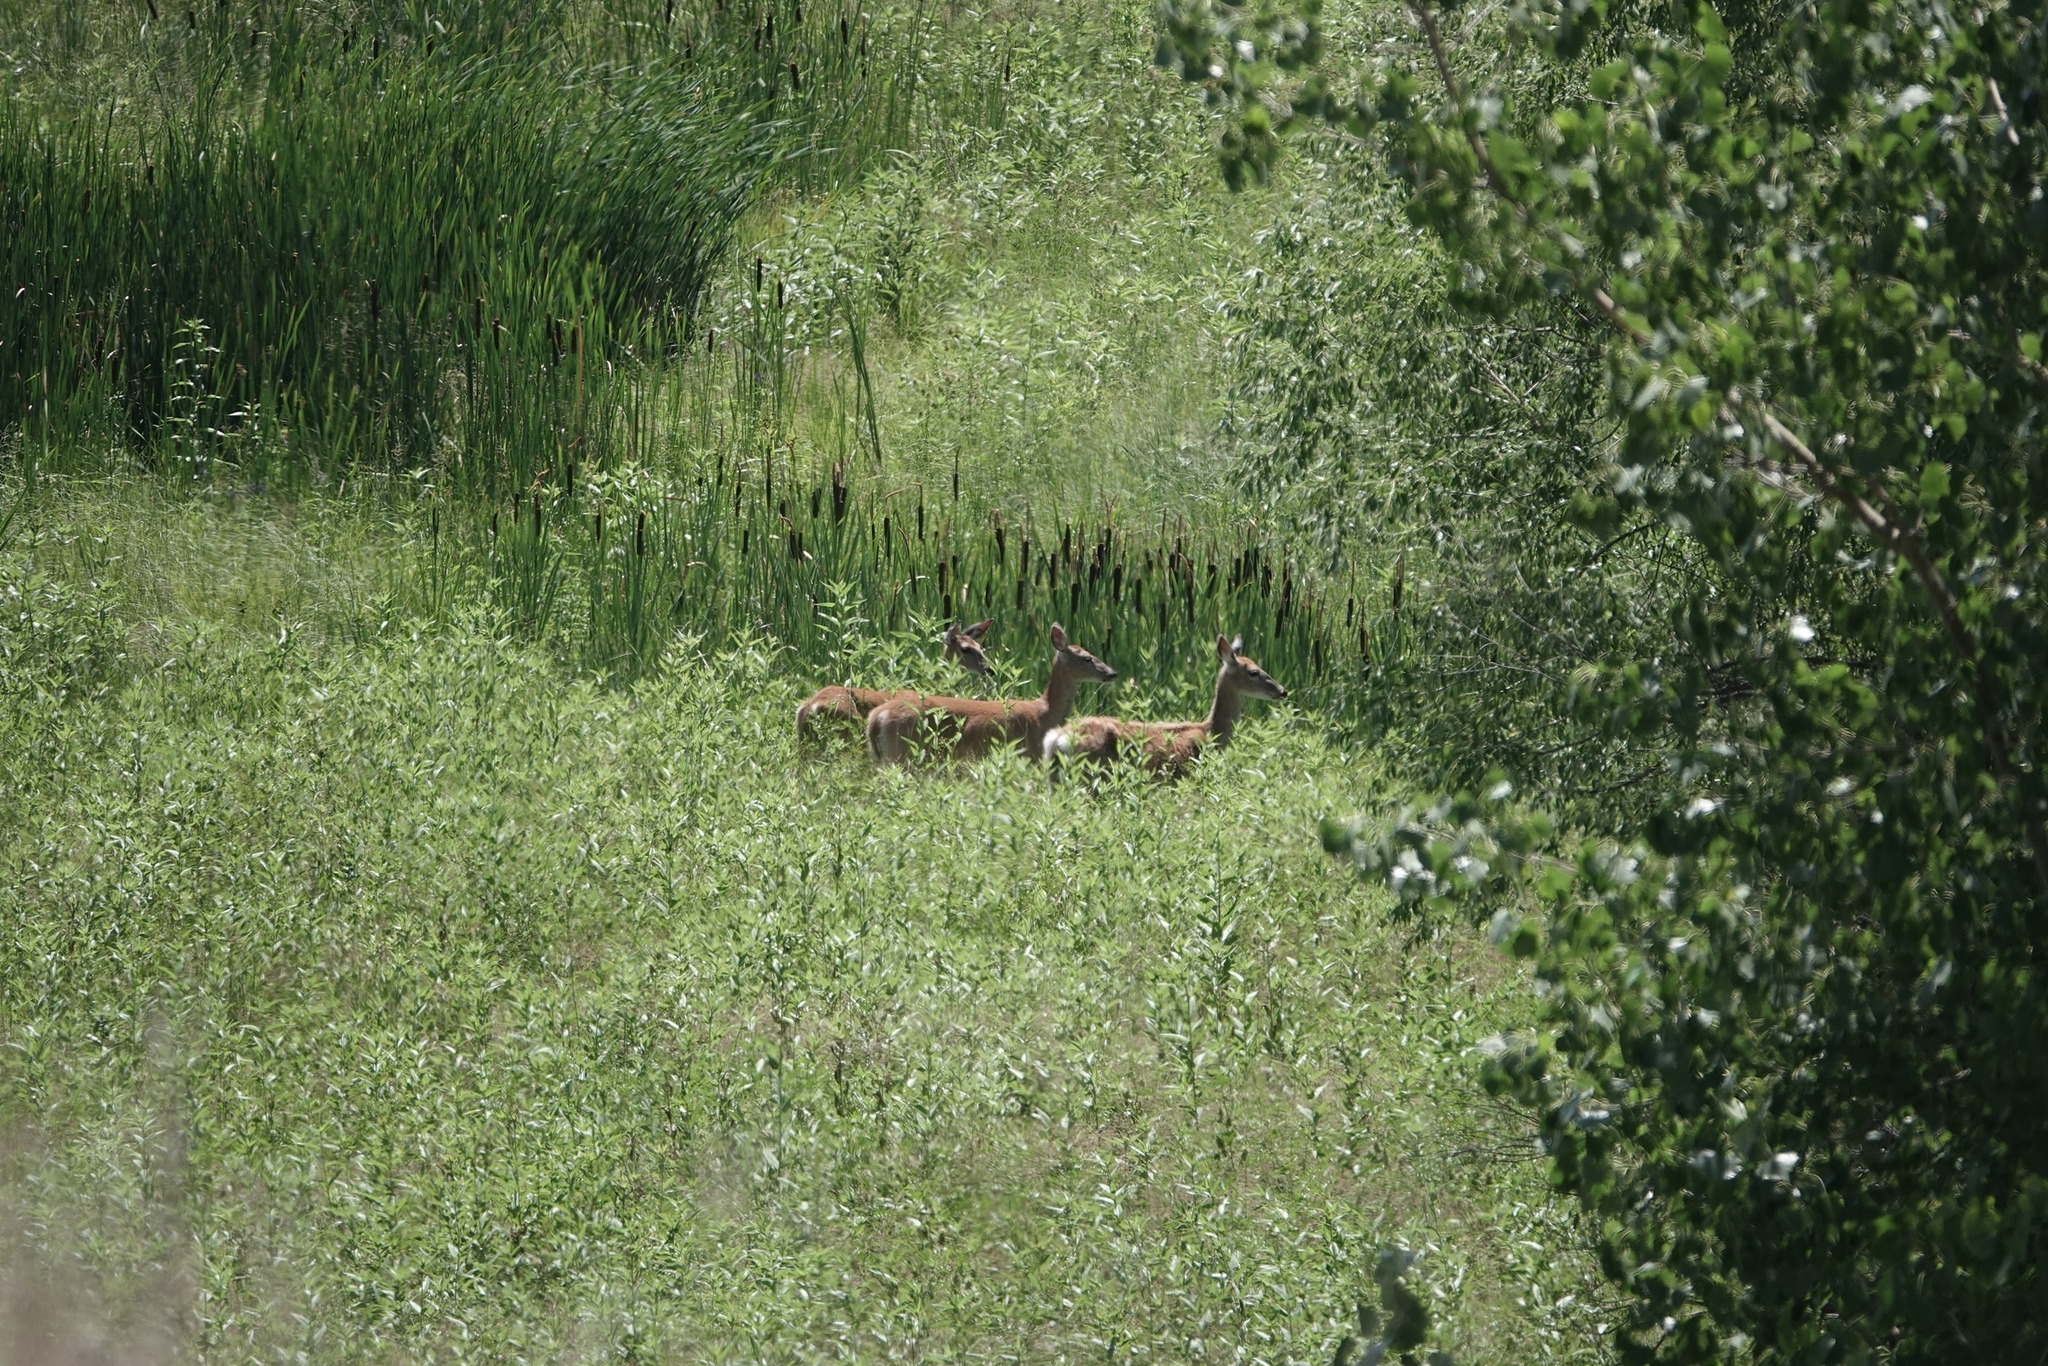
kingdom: Animalia
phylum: Chordata
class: Mammalia
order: Artiodactyla
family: Cervidae
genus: Odocoileus
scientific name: Odocoileus virginianus
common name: White-tailed deer
